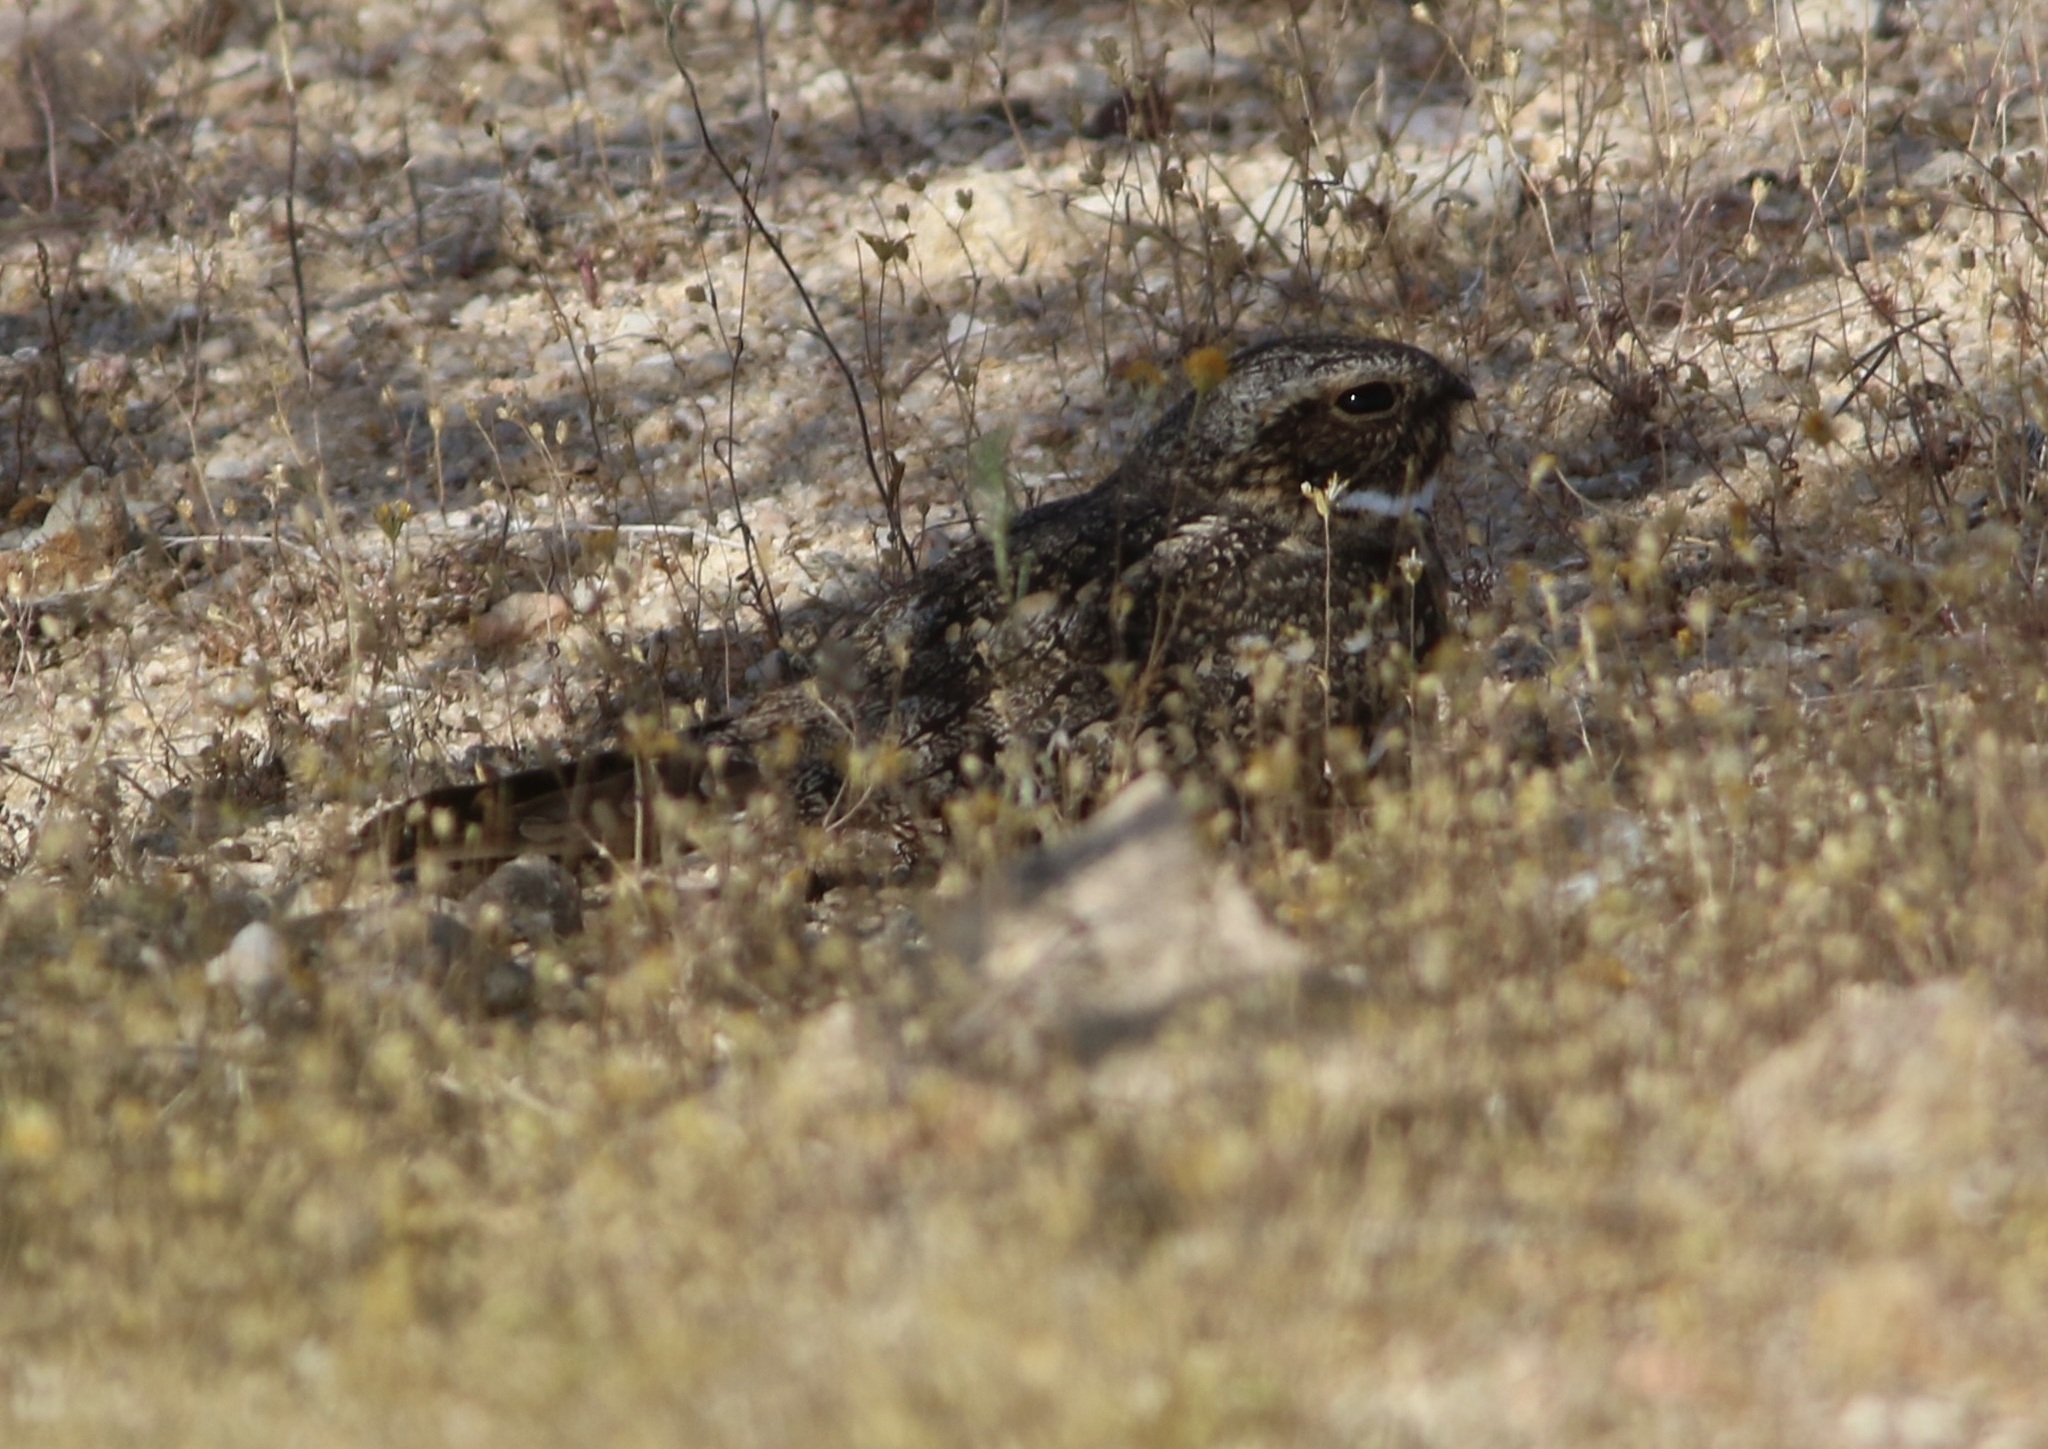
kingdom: Animalia
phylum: Chordata
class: Aves
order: Caprimulgiformes
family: Caprimulgidae
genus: Chordeiles
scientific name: Chordeiles acutipennis
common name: Lesser nighthawk
